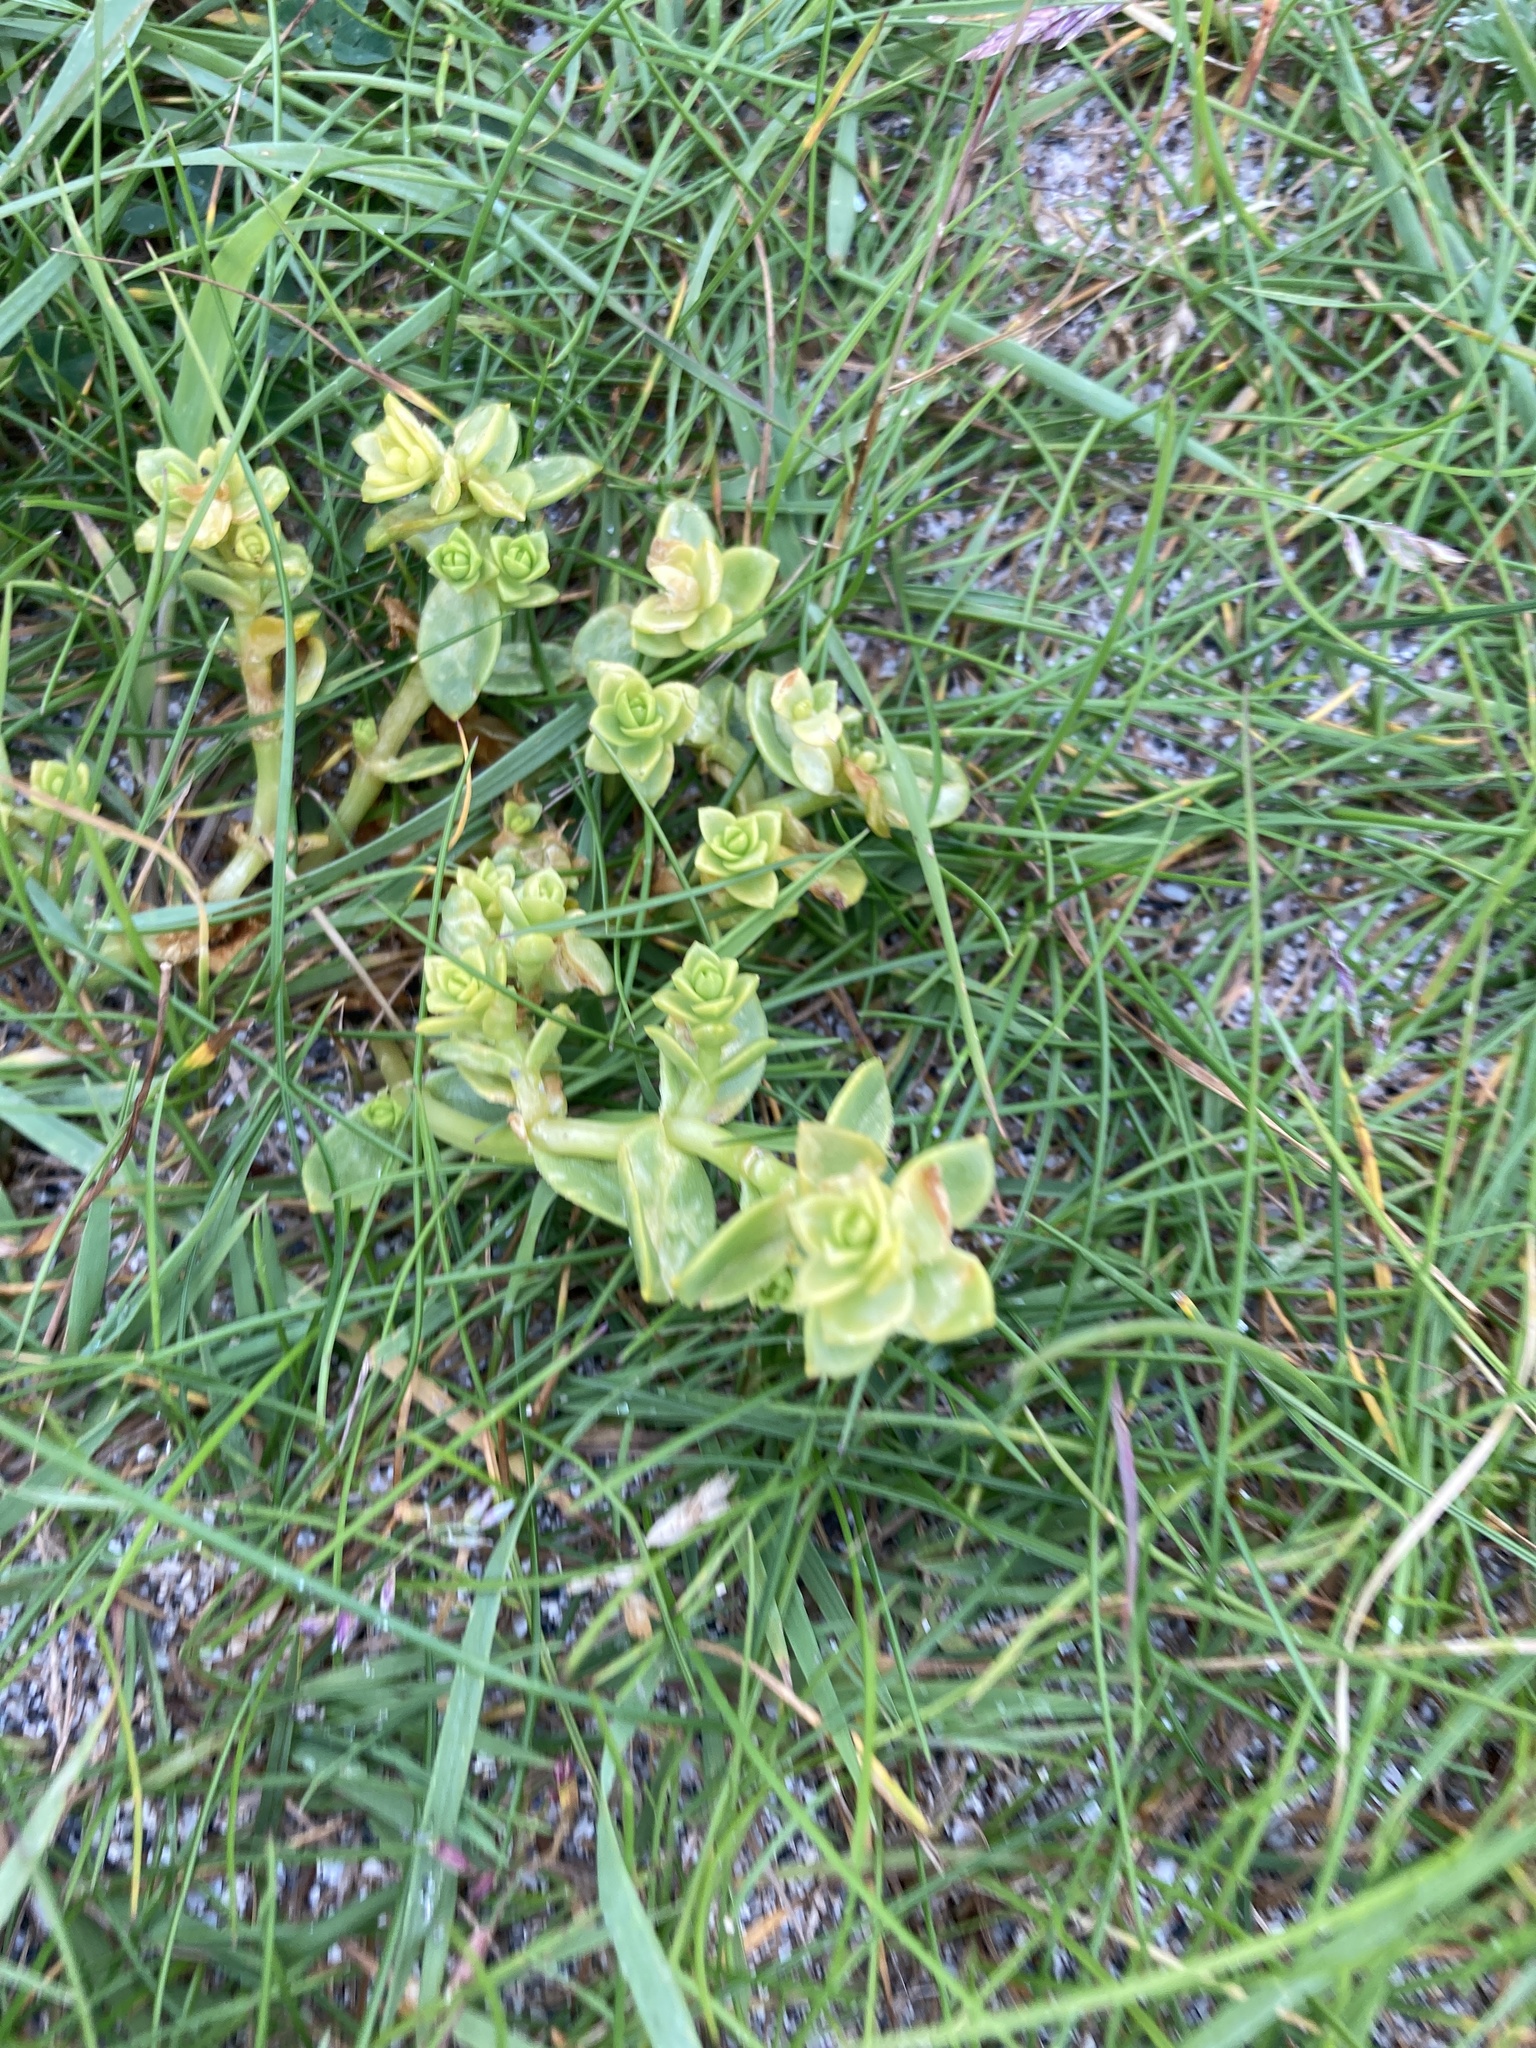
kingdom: Plantae
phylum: Tracheophyta
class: Magnoliopsida
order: Caryophyllales
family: Caryophyllaceae
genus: Honckenya
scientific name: Honckenya peploides
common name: Sea sandwort
